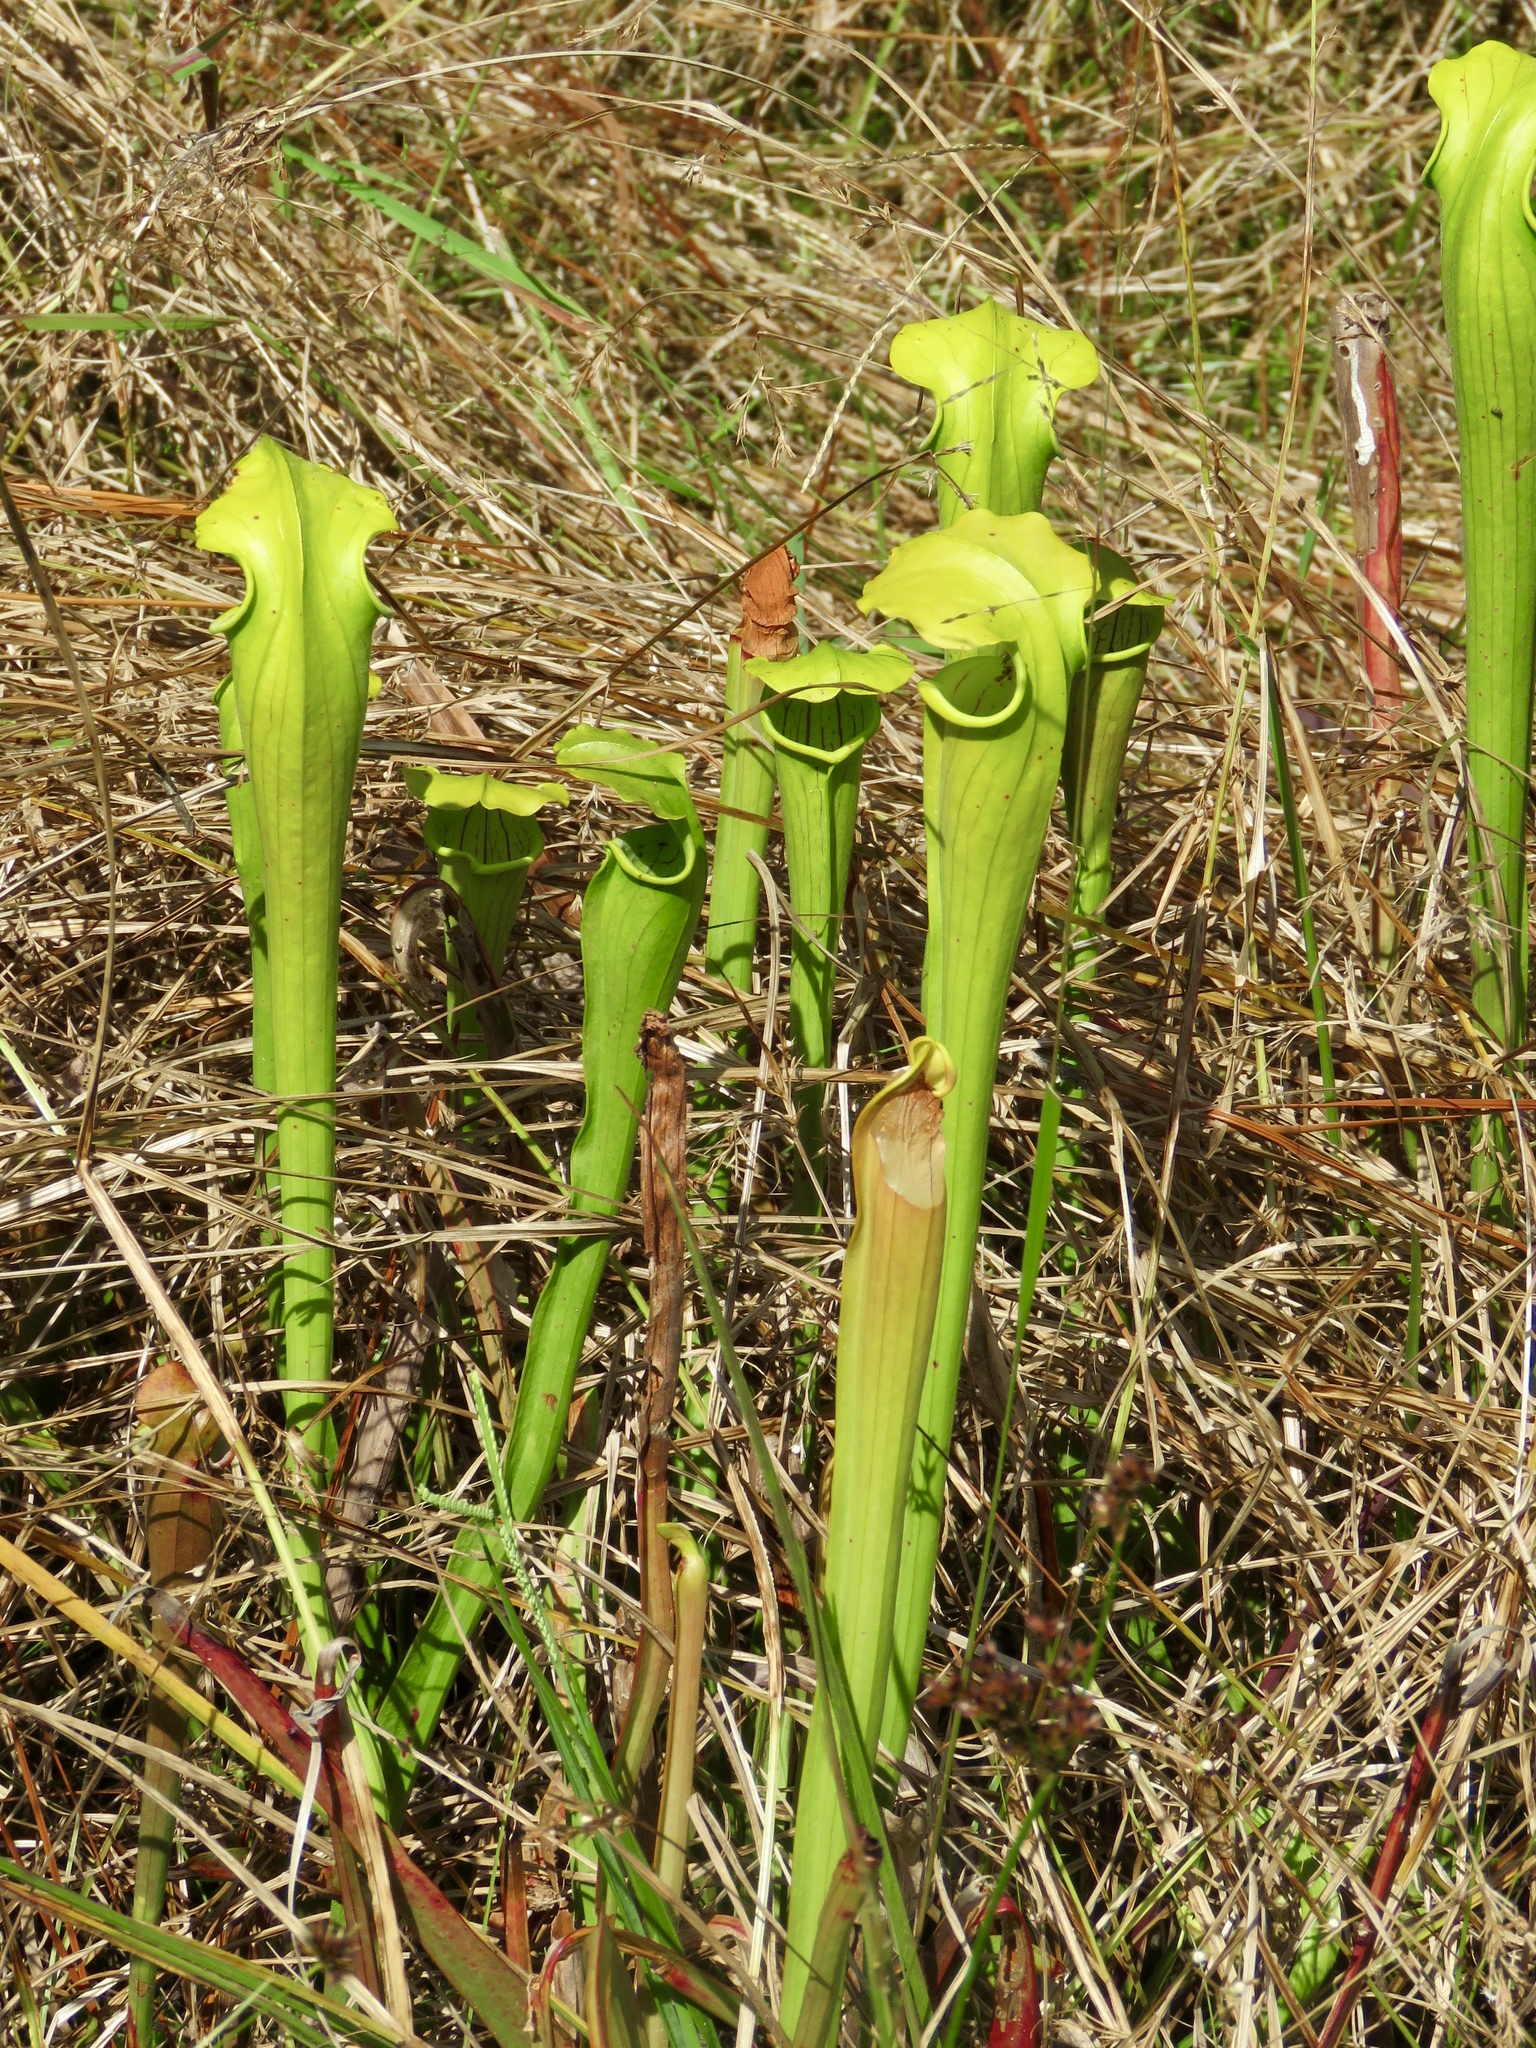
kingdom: Plantae
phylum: Tracheophyta
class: Magnoliopsida
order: Ericales
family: Sarraceniaceae
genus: Sarracenia
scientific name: Sarracenia alata
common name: Yellow trumpets
